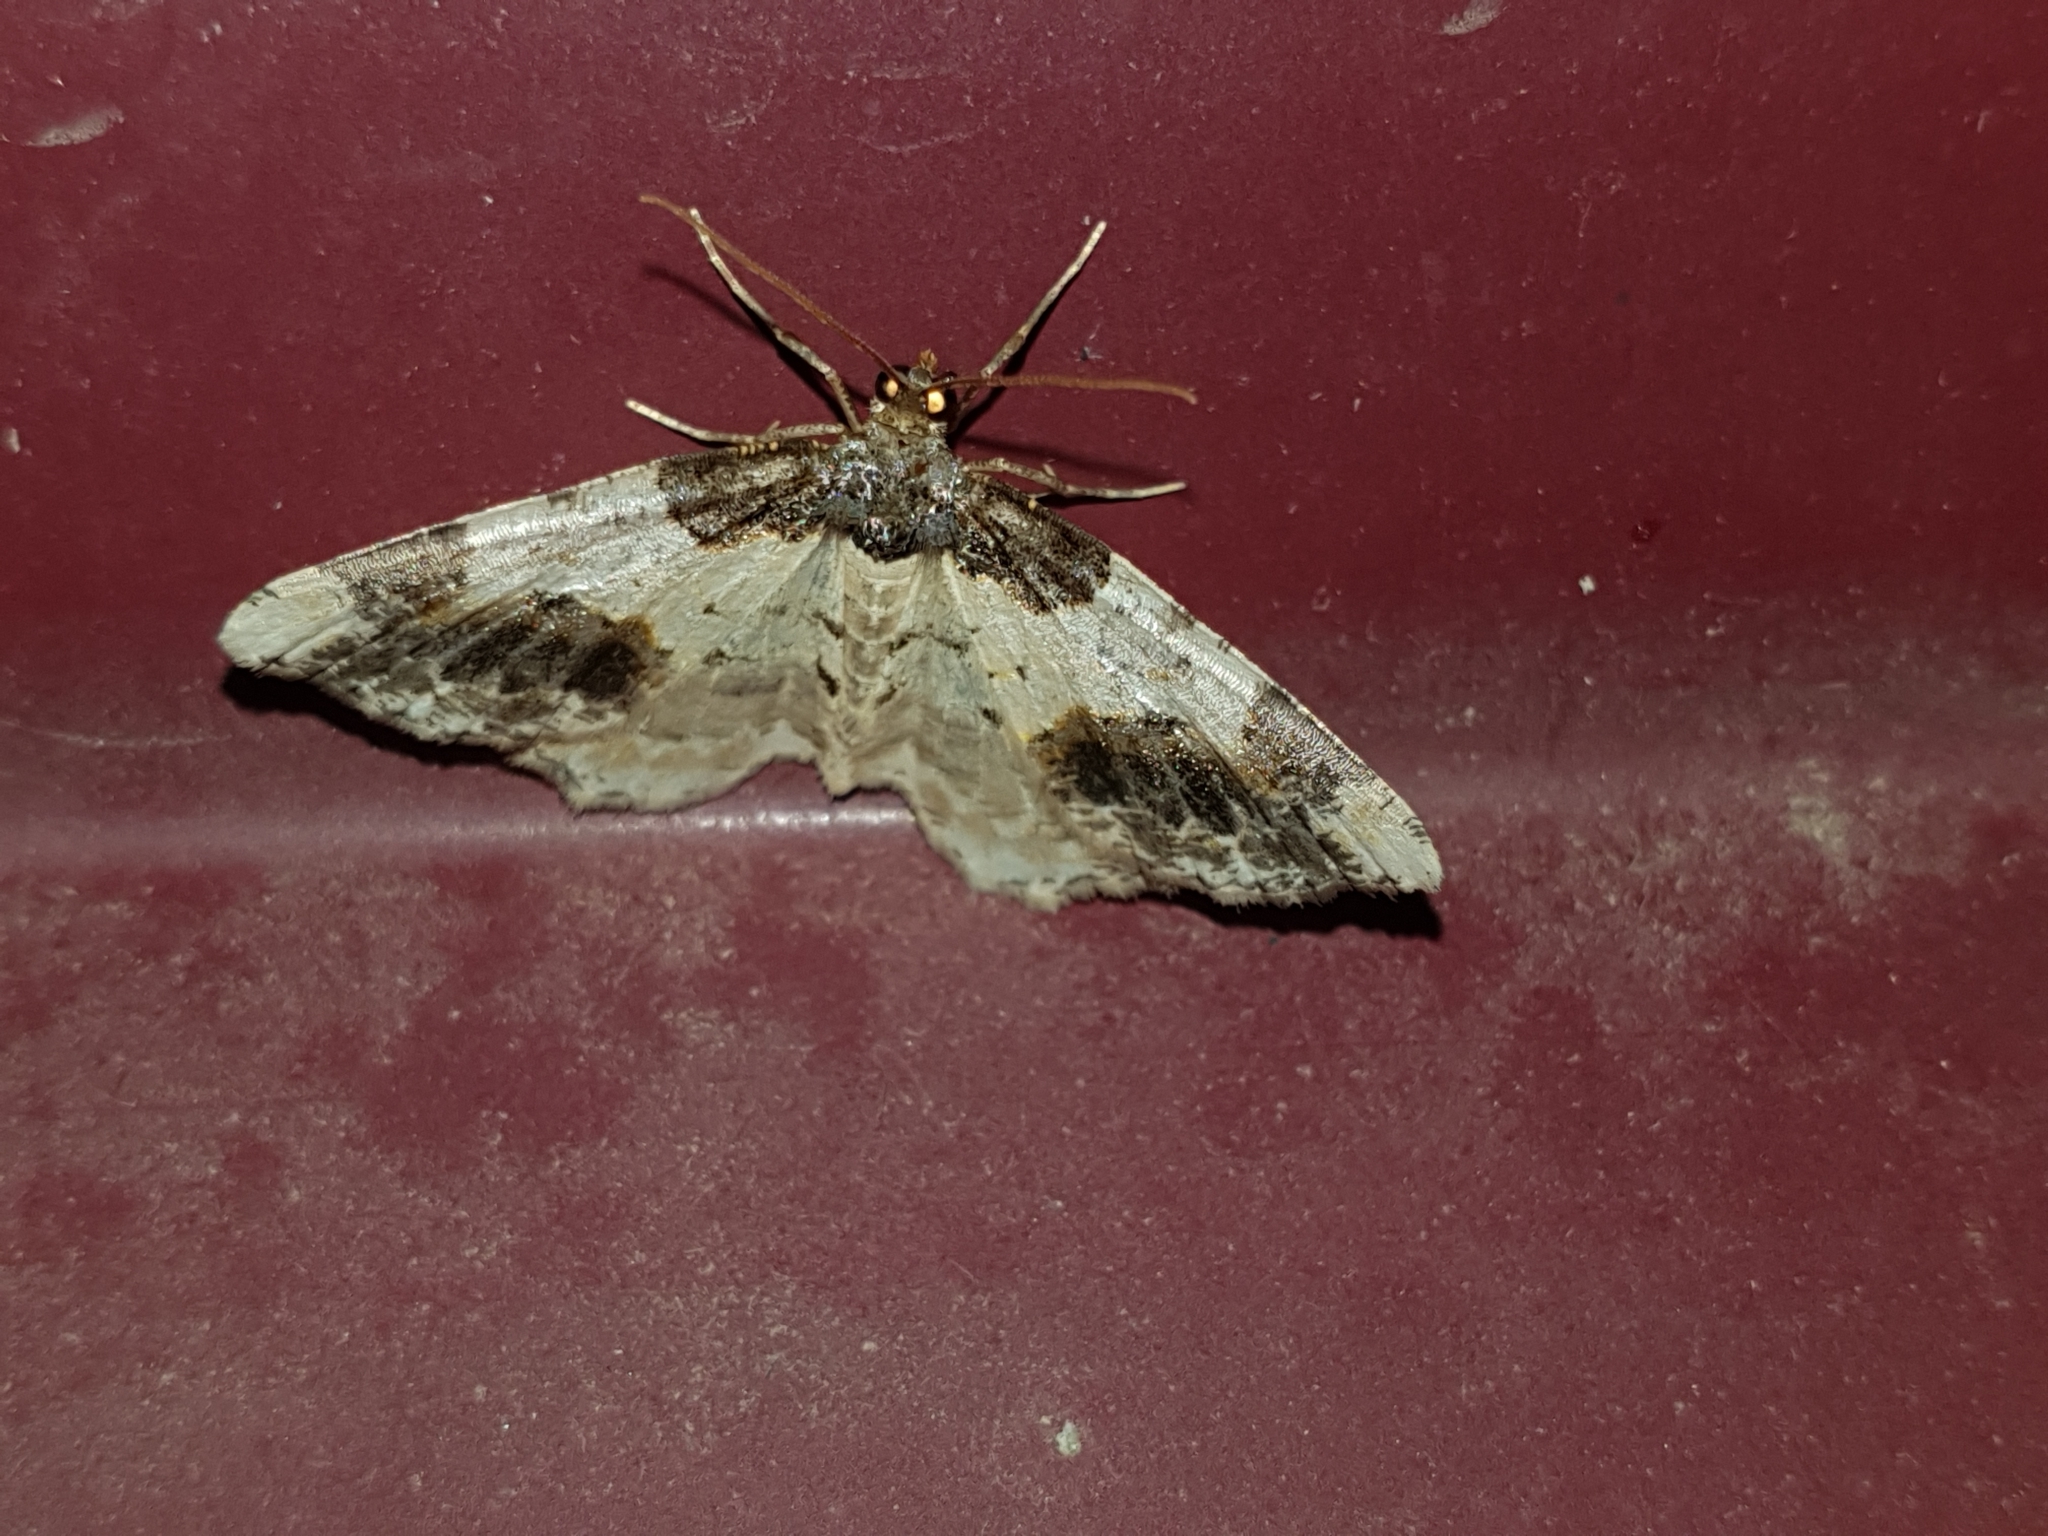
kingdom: Animalia
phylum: Arthropoda
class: Insecta
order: Lepidoptera
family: Geometridae
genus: Ligdia
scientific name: Ligdia adustata
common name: Scorched carpet
